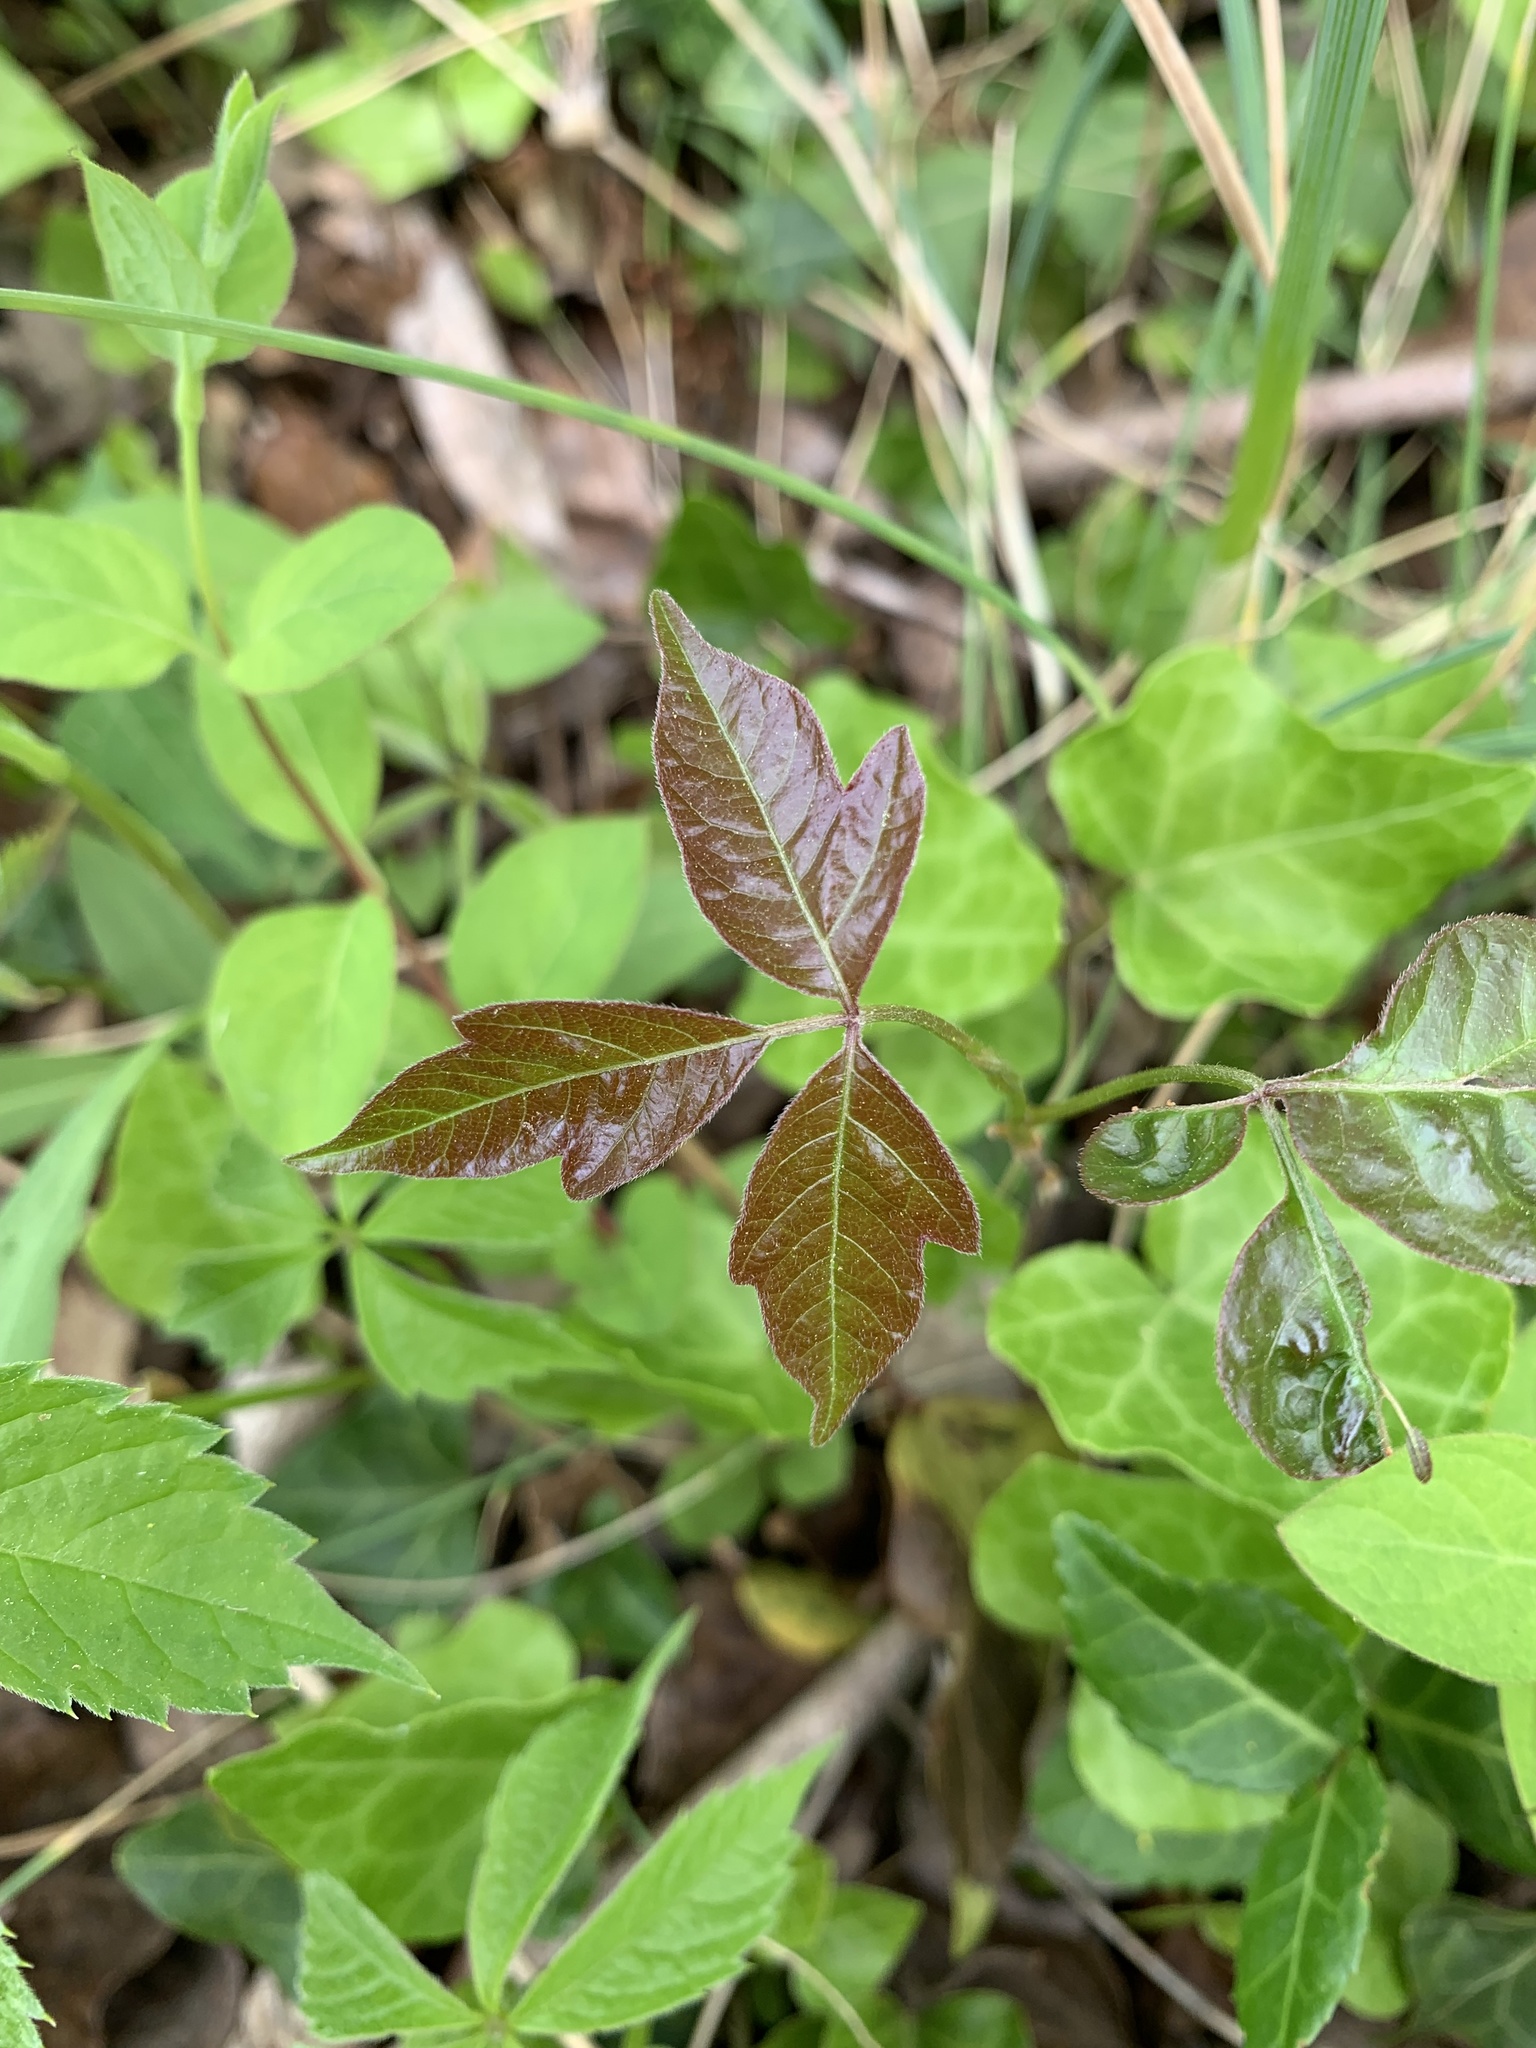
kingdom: Plantae
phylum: Tracheophyta
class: Magnoliopsida
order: Sapindales
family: Anacardiaceae
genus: Toxicodendron
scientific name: Toxicodendron radicans
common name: Poison ivy
